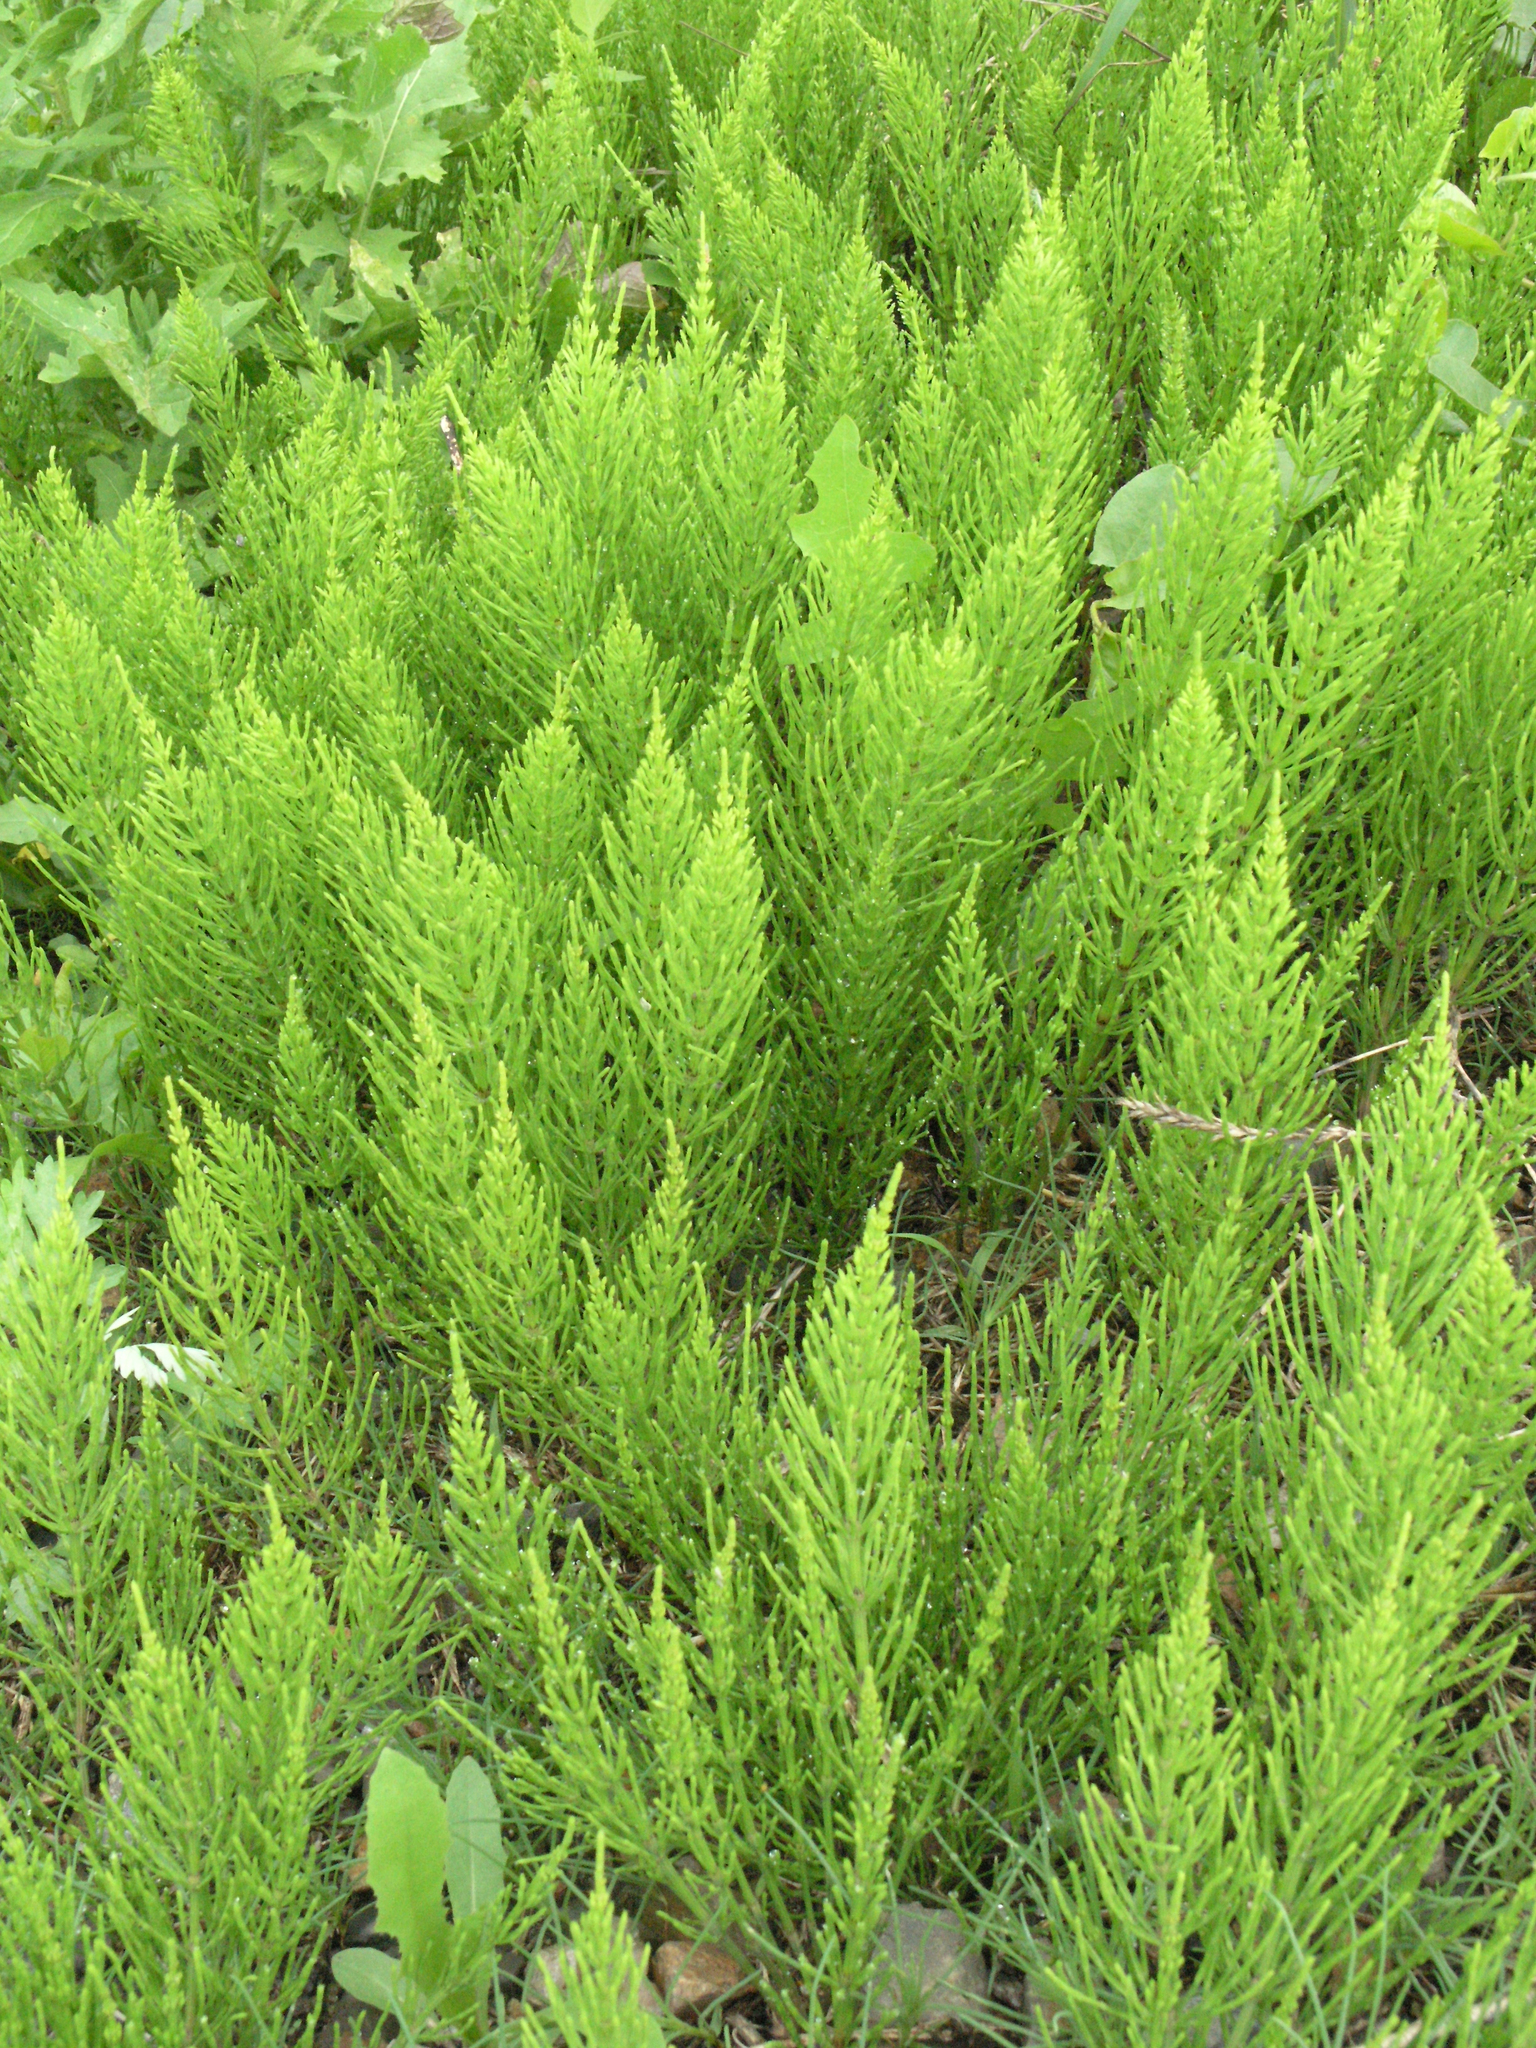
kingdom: Plantae
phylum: Tracheophyta
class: Polypodiopsida
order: Equisetales
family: Equisetaceae
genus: Equisetum
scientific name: Equisetum arvense
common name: Field horsetail
